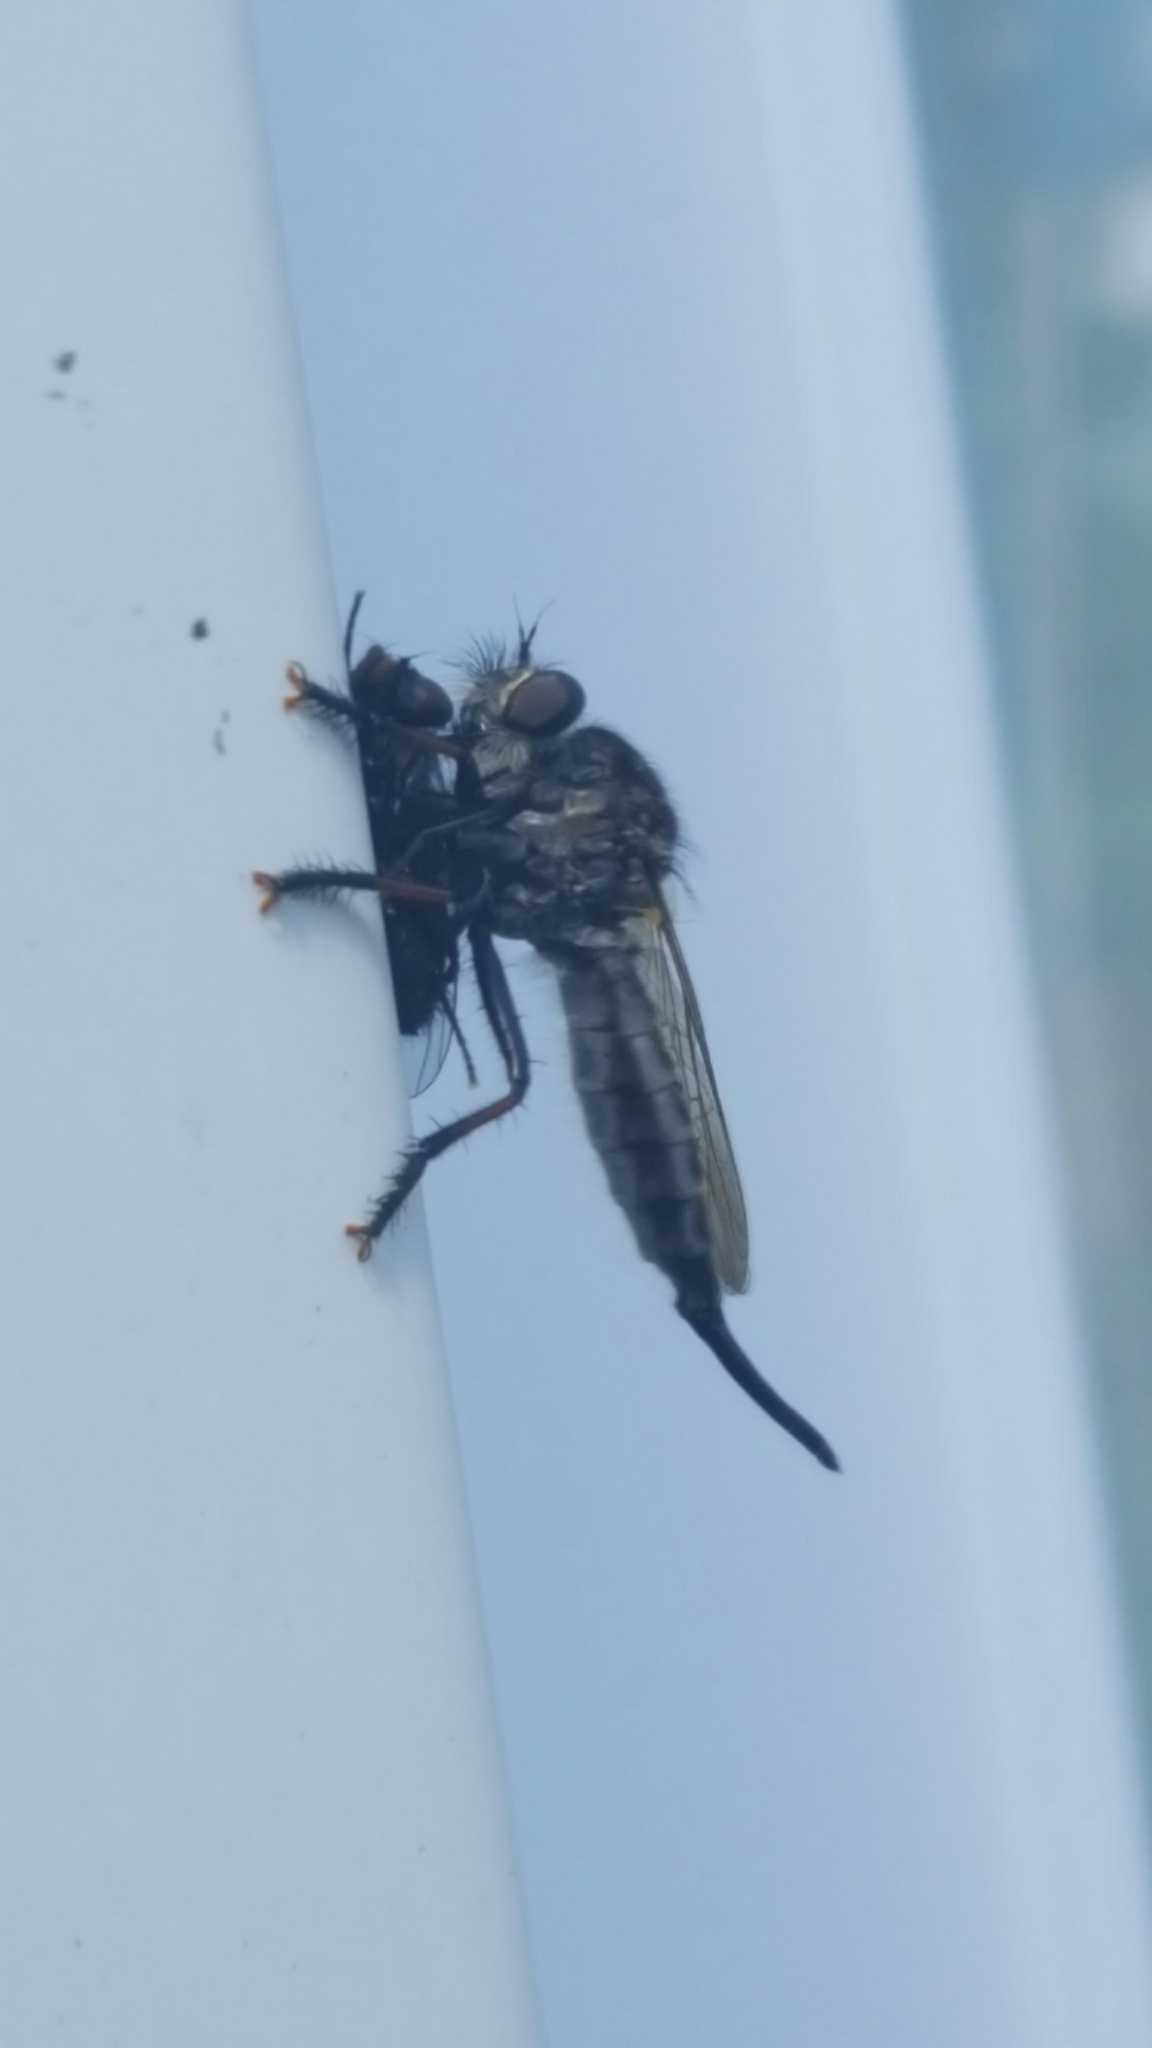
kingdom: Animalia
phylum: Arthropoda
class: Insecta
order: Diptera
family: Asilidae
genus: Efferia
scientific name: Efferia
